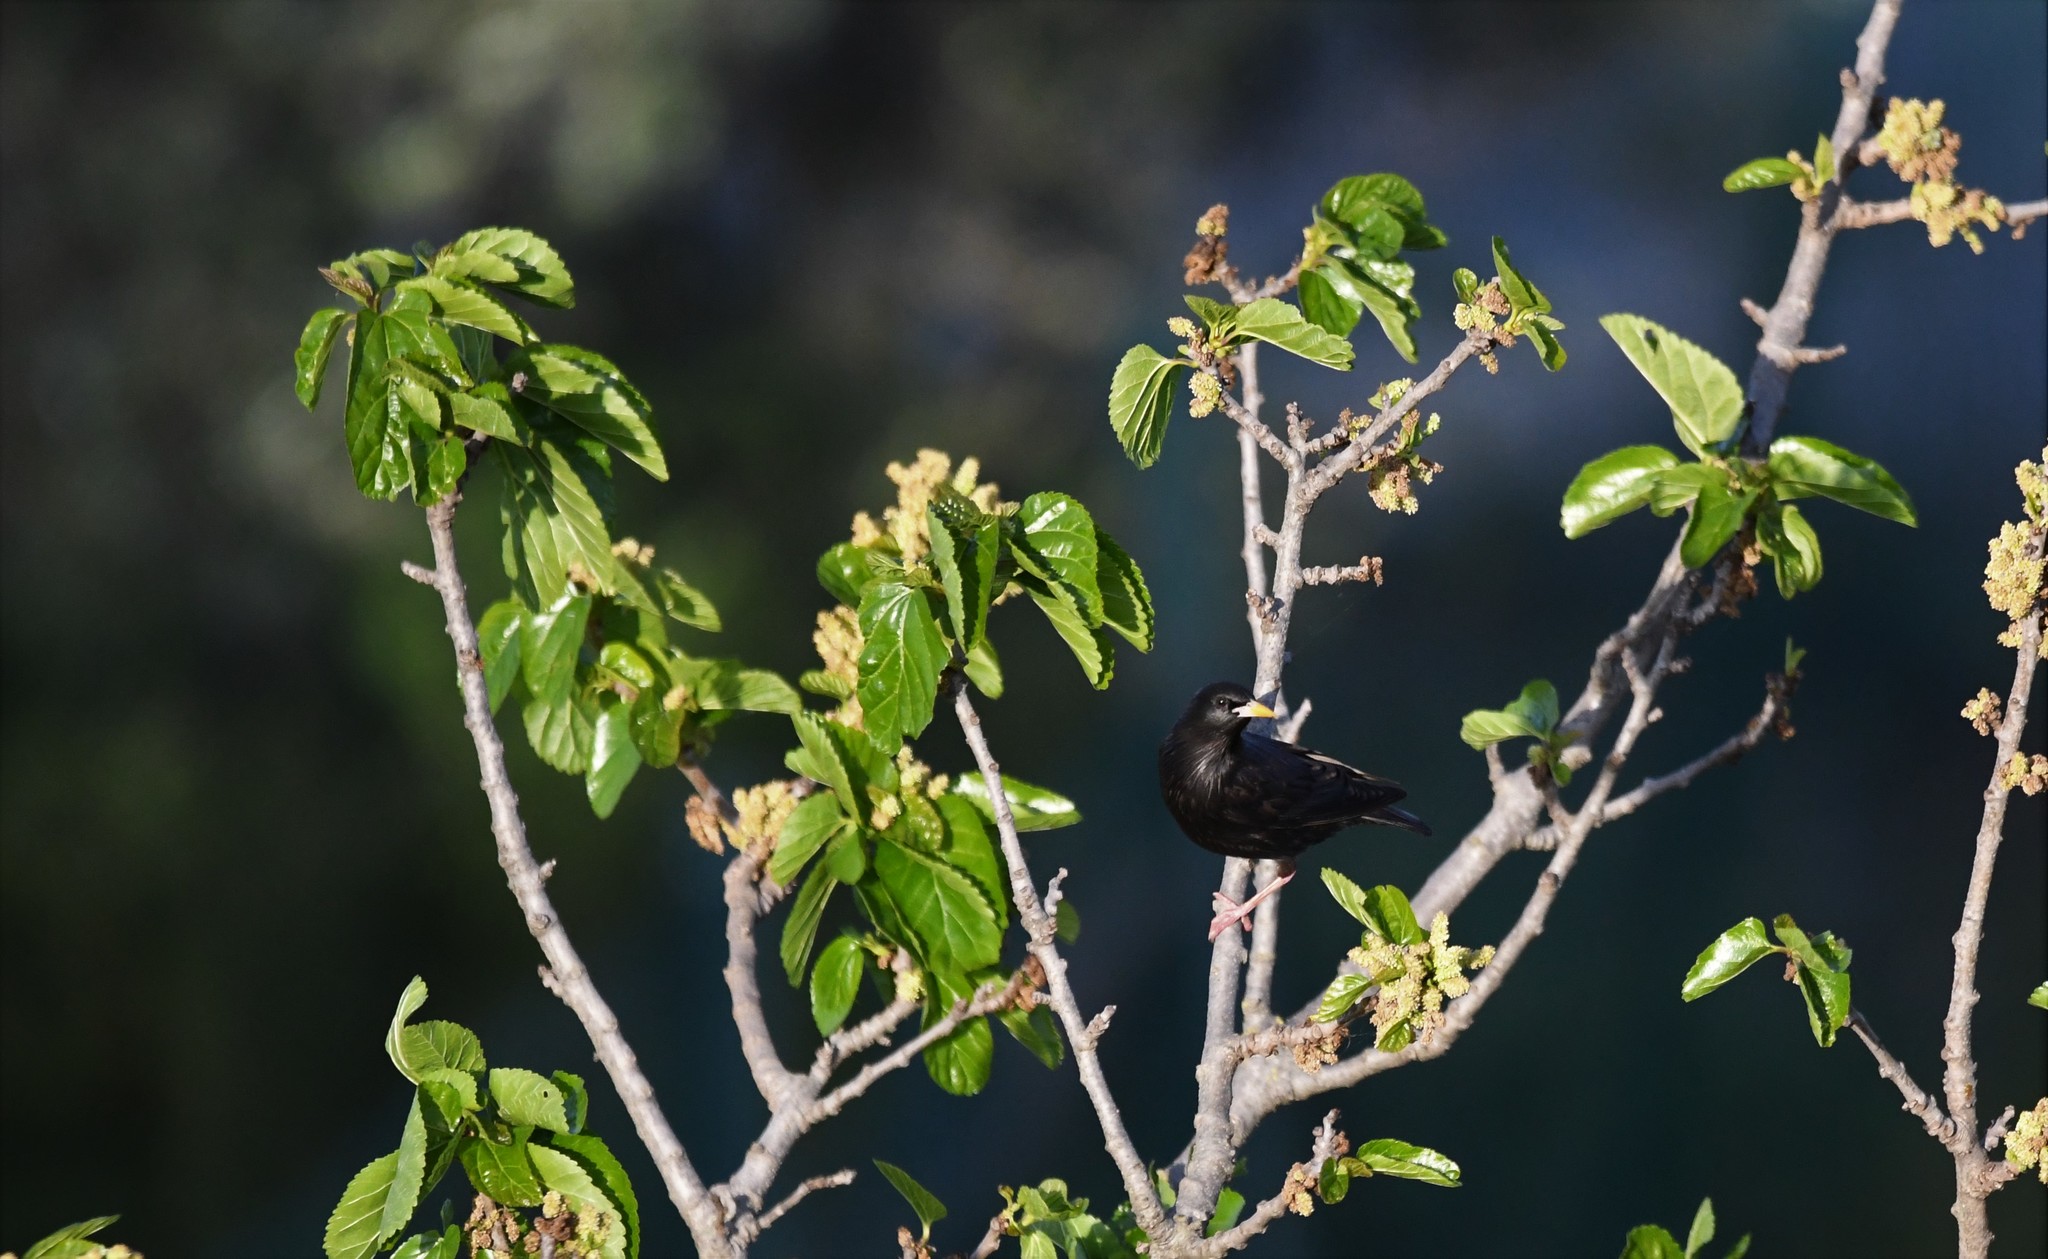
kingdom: Animalia
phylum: Chordata
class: Aves
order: Passeriformes
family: Sturnidae
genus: Sturnus
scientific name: Sturnus unicolor
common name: Spotless starling
